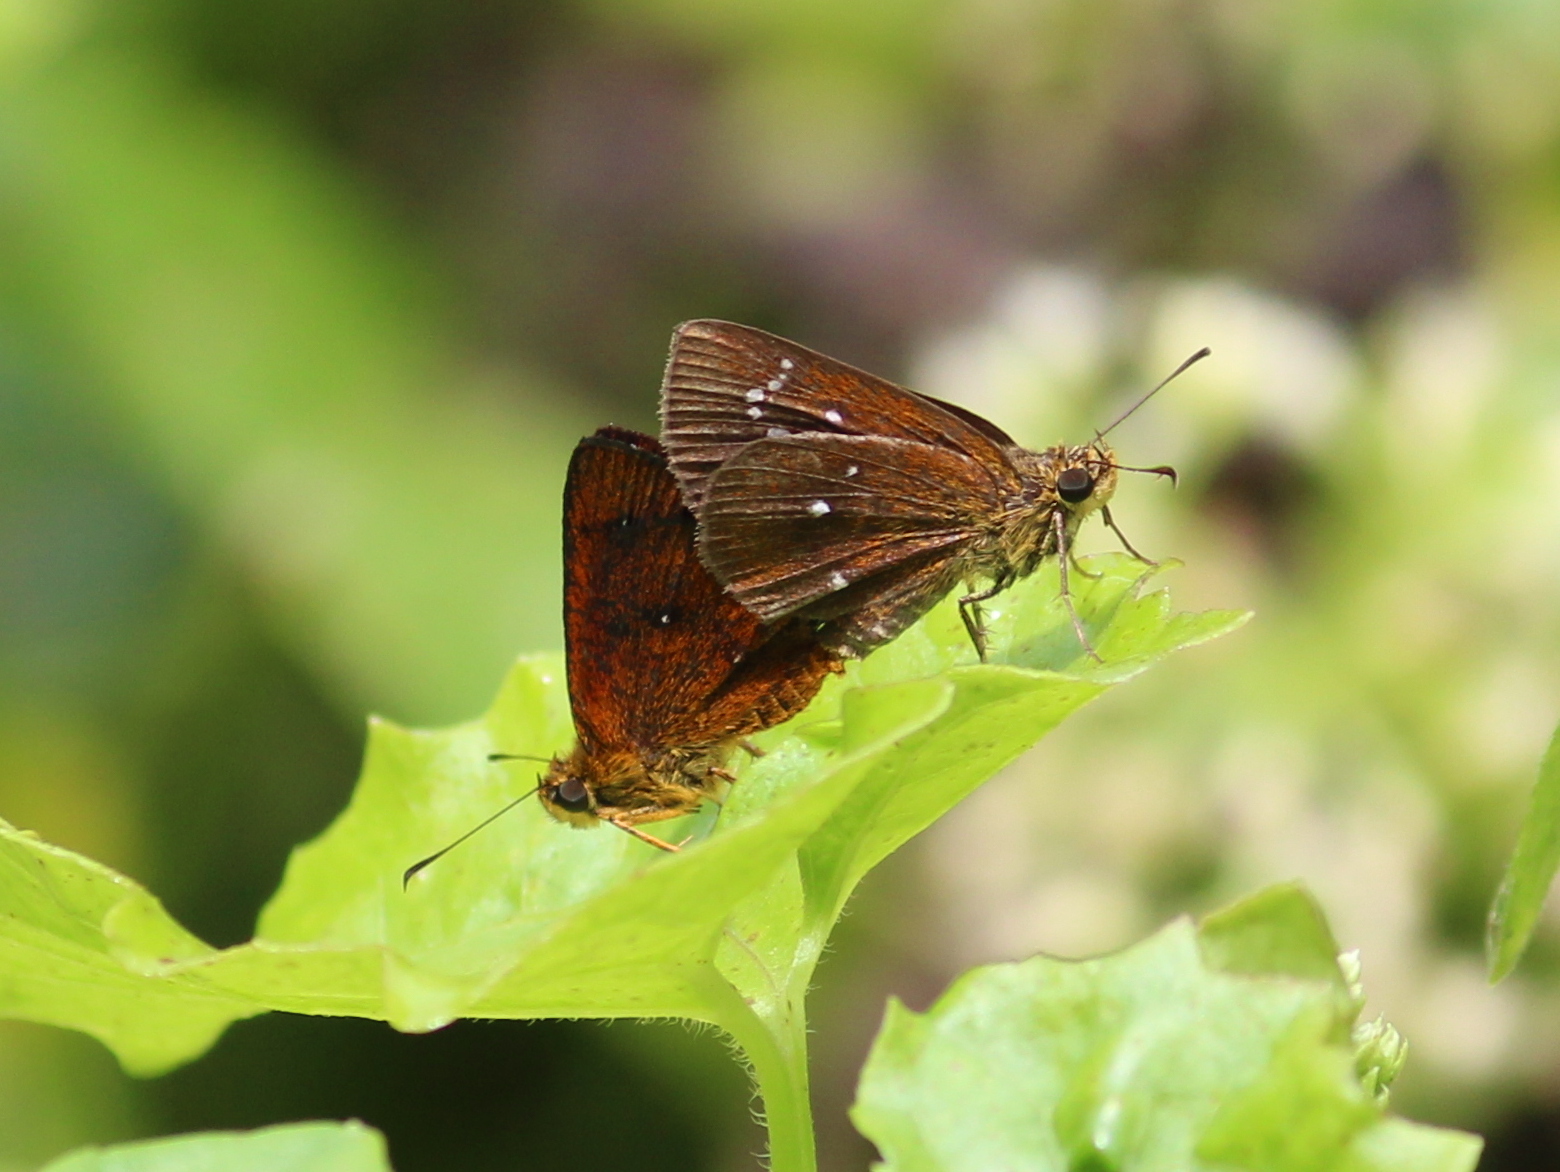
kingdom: Animalia
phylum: Arthropoda
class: Insecta
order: Lepidoptera
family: Hesperiidae
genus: Iambrix
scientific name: Iambrix salsala
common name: Chestnut bob
